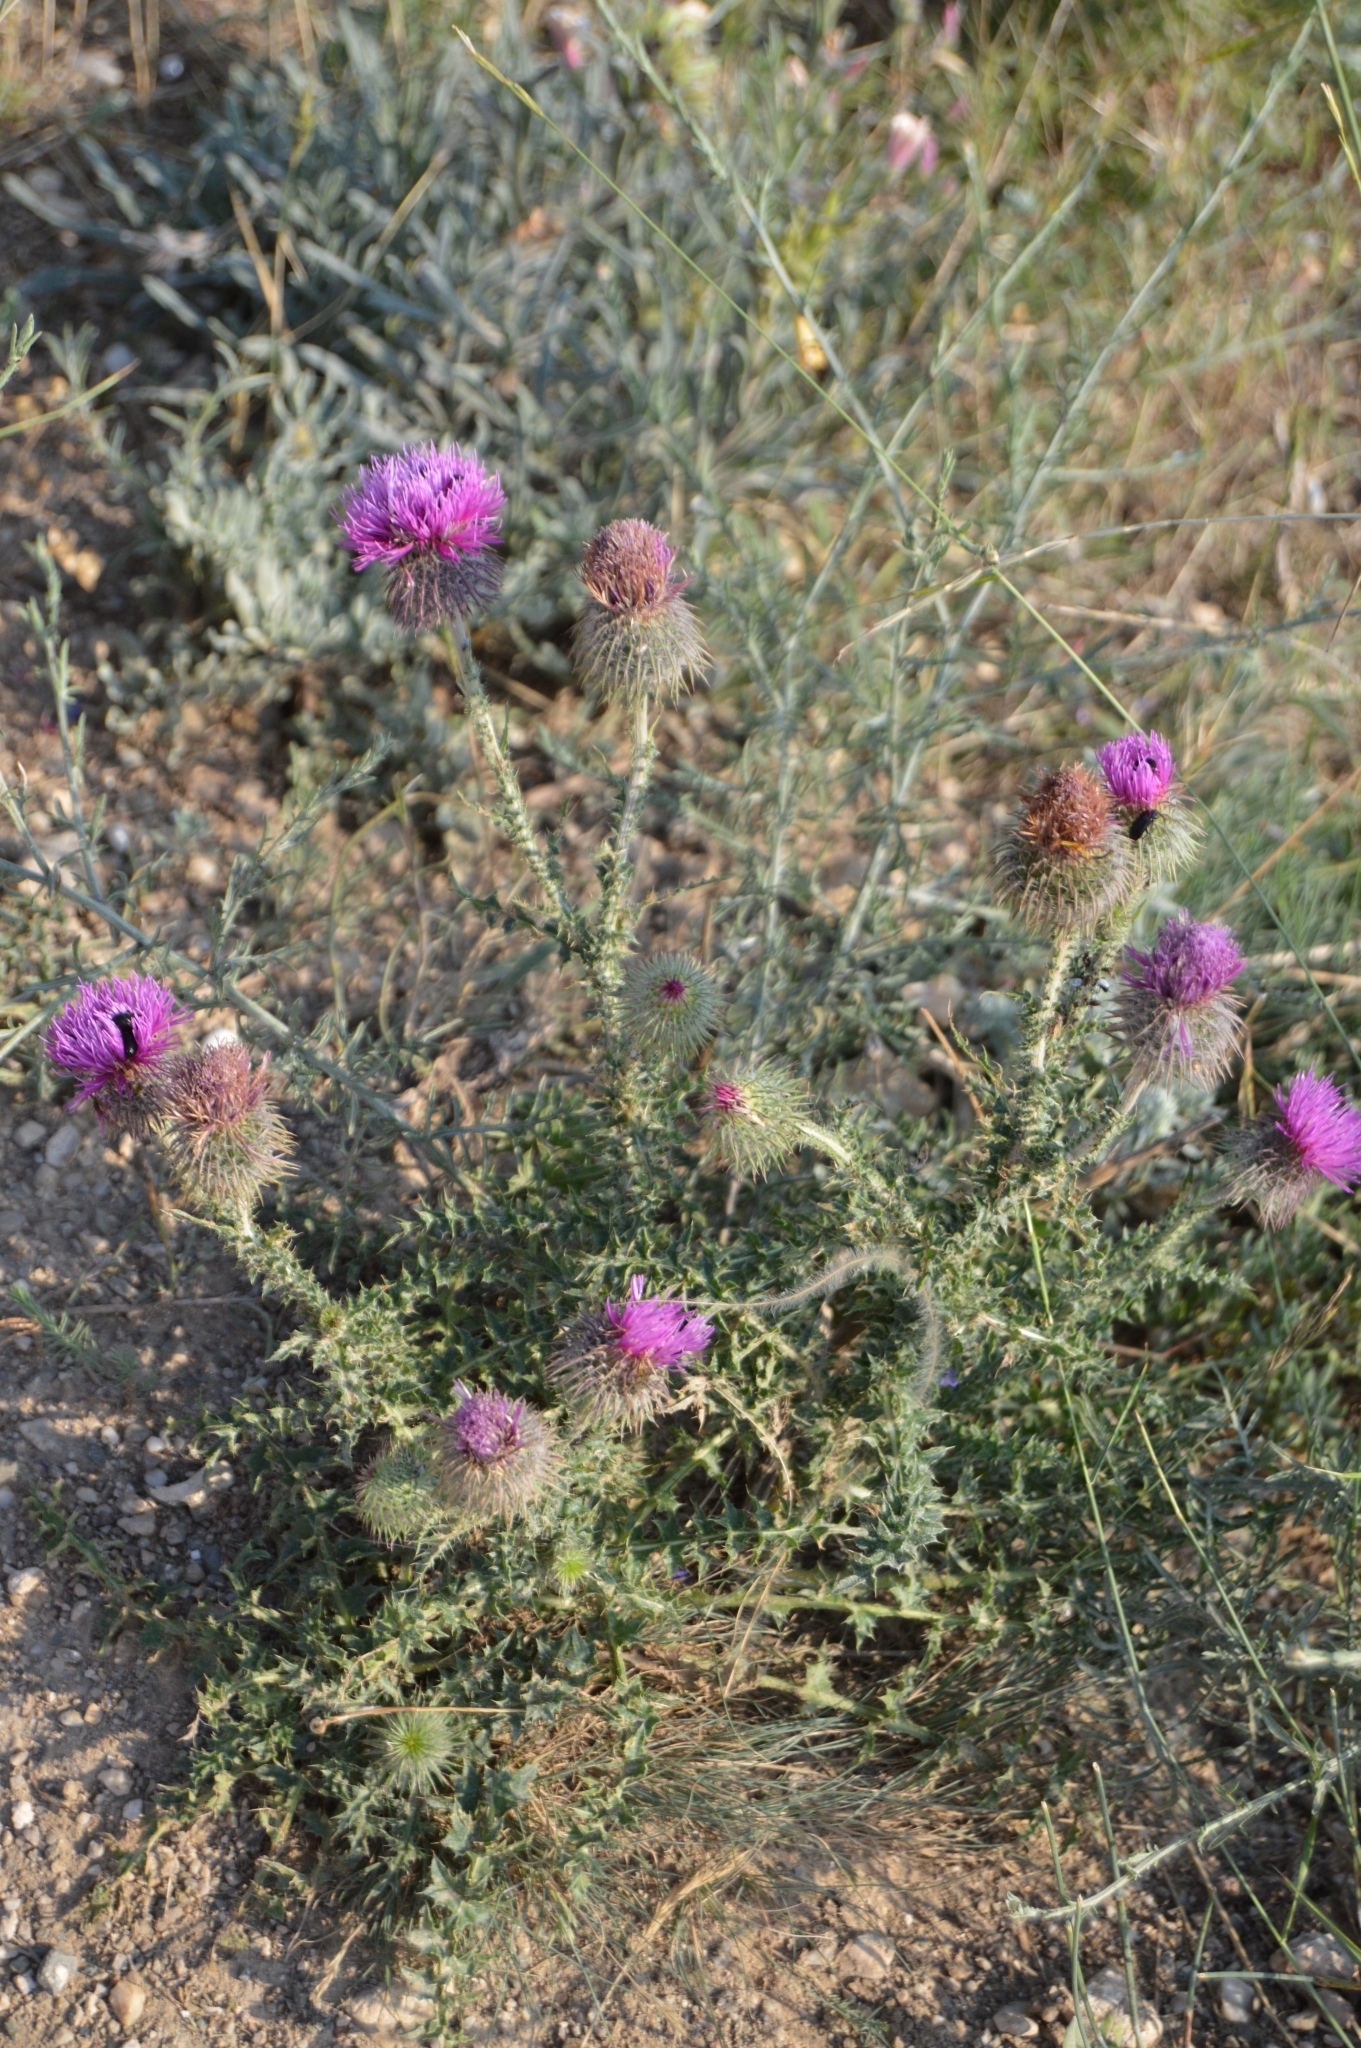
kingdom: Plantae
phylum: Tracheophyta
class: Magnoliopsida
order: Asterales
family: Asteraceae
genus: Carduus
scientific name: Carduus uncinatus
